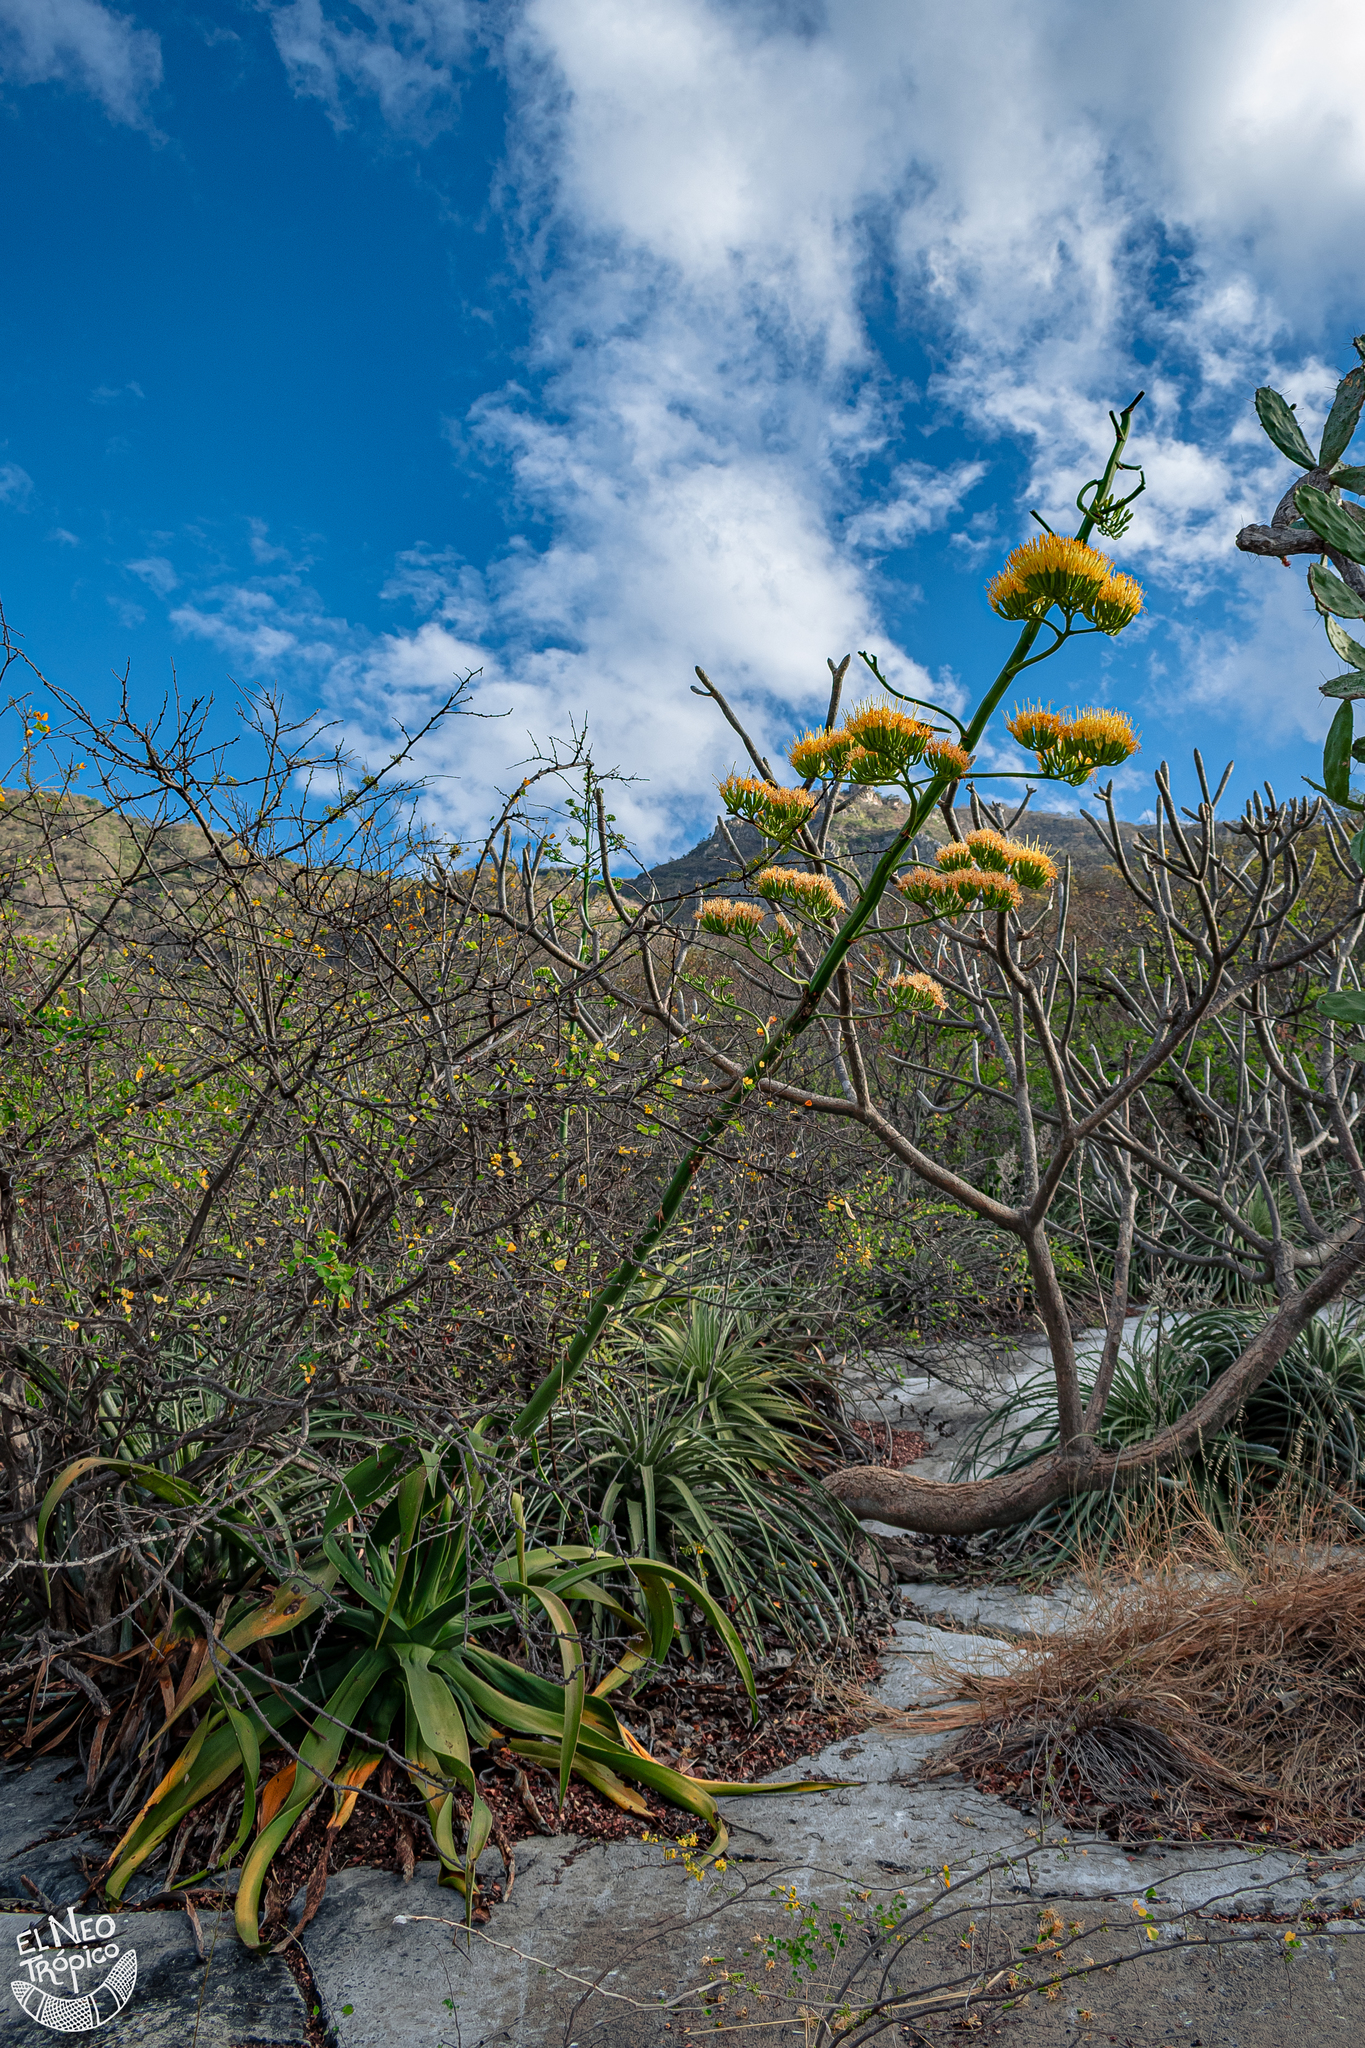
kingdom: Plantae
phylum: Tracheophyta
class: Liliopsida
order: Asparagales
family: Asparagaceae
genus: Agave
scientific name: Agave kewensis
